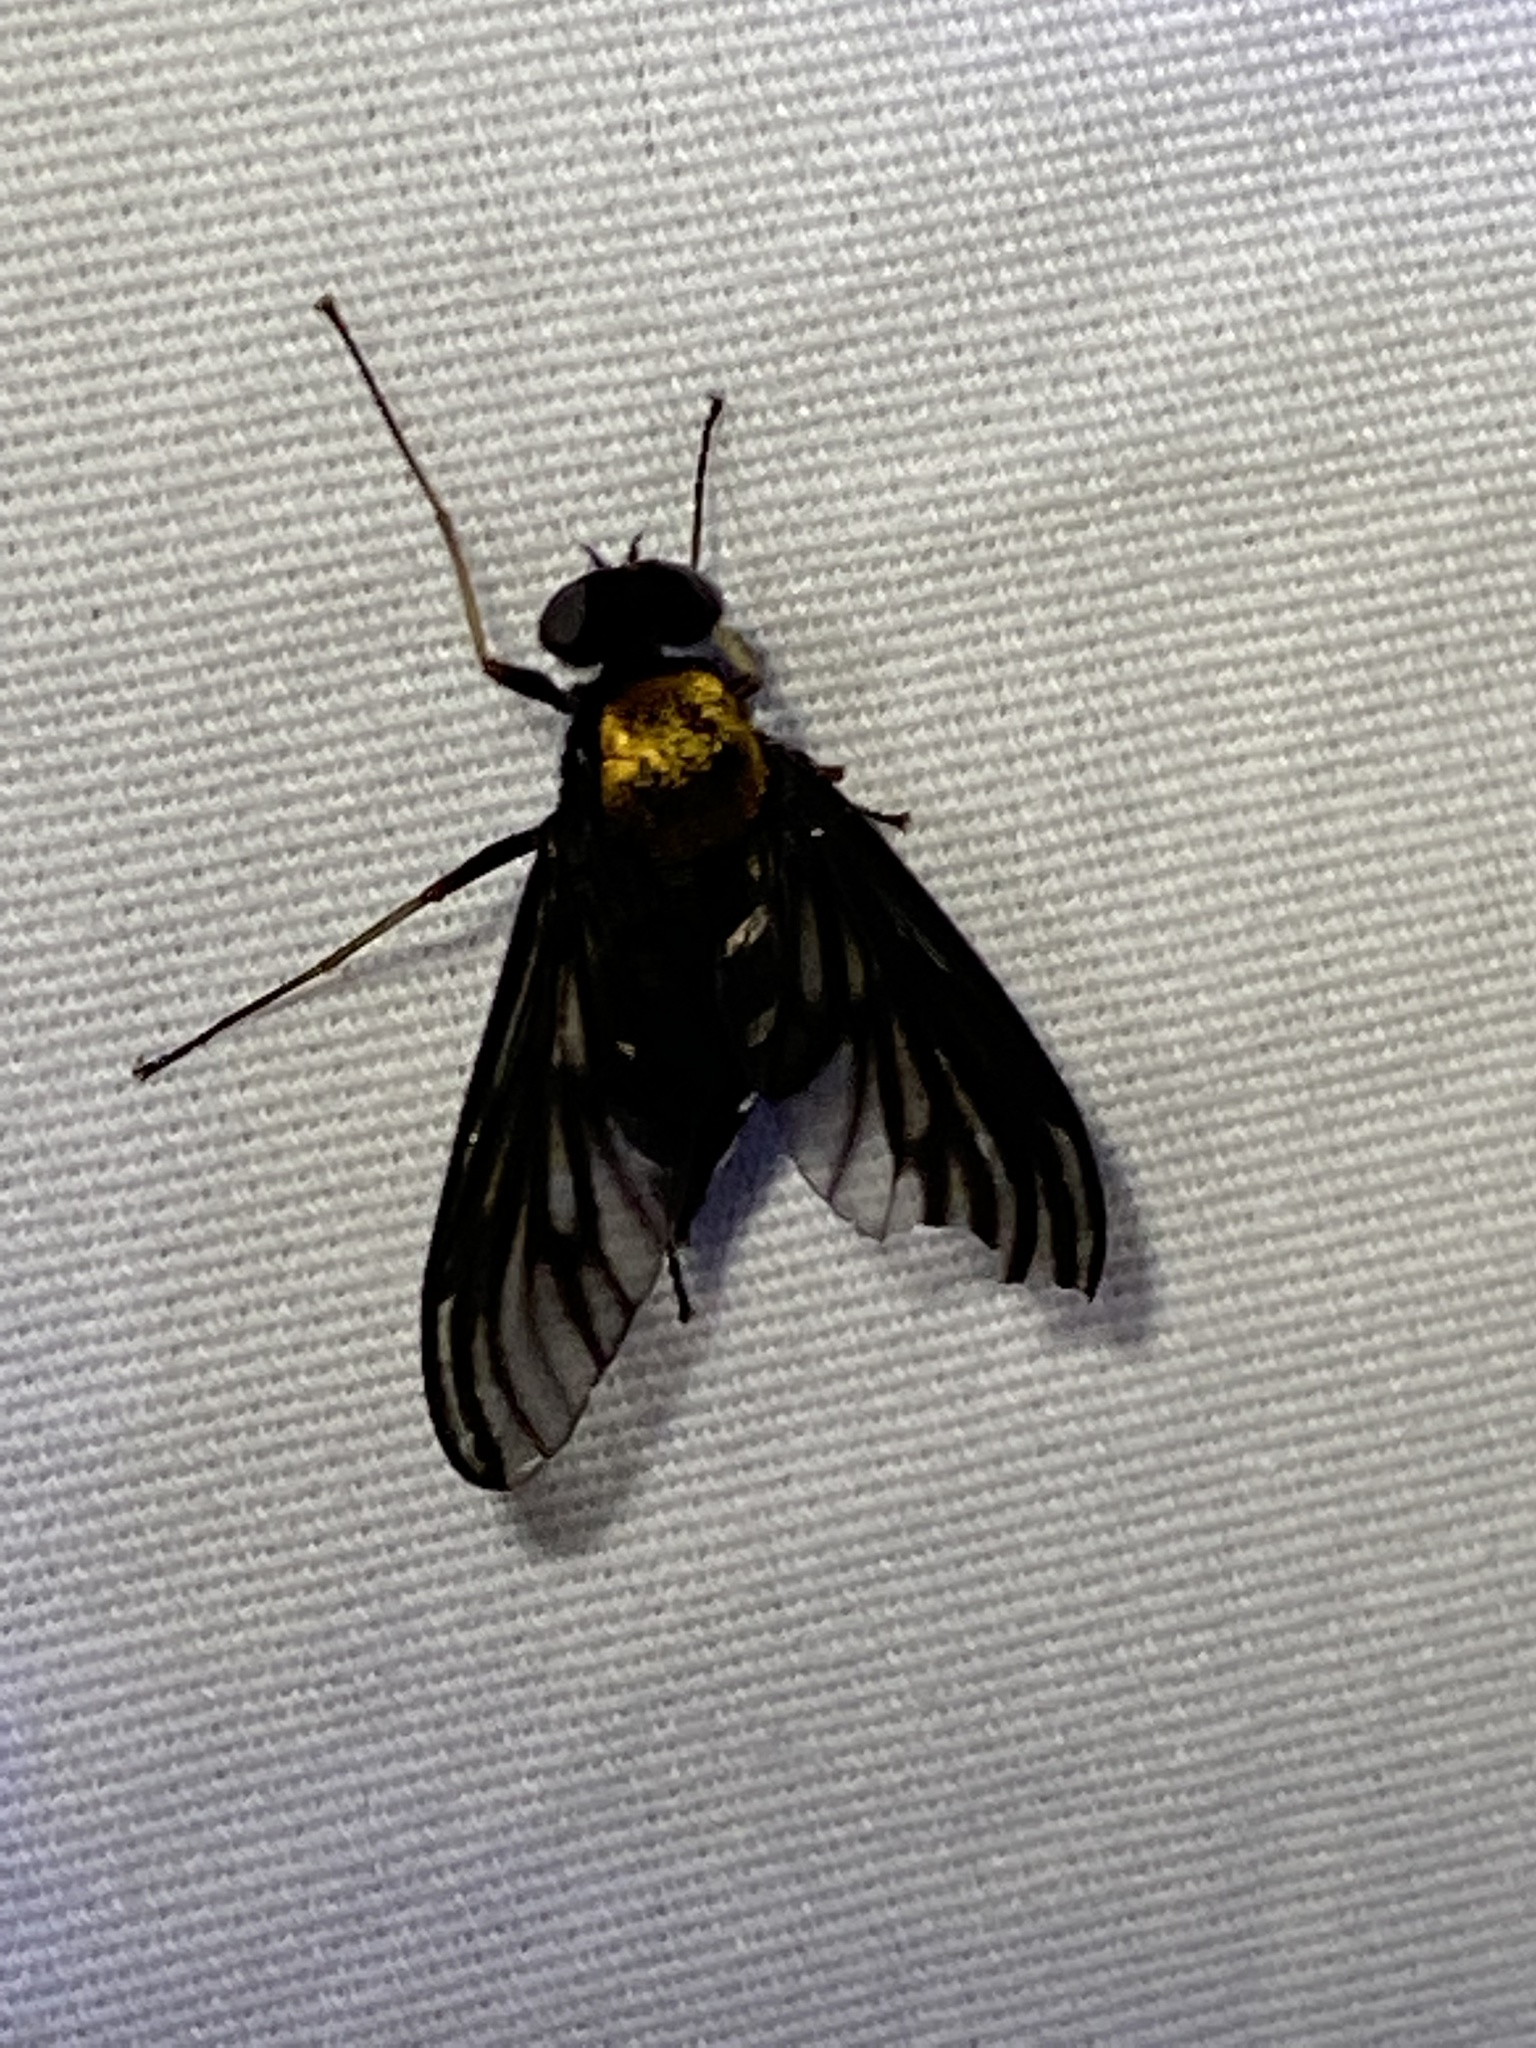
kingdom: Animalia
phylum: Arthropoda
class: Insecta
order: Diptera
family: Rhagionidae
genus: Chrysopilus
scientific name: Chrysopilus thoracicus
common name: Golden-backed snipe fly
